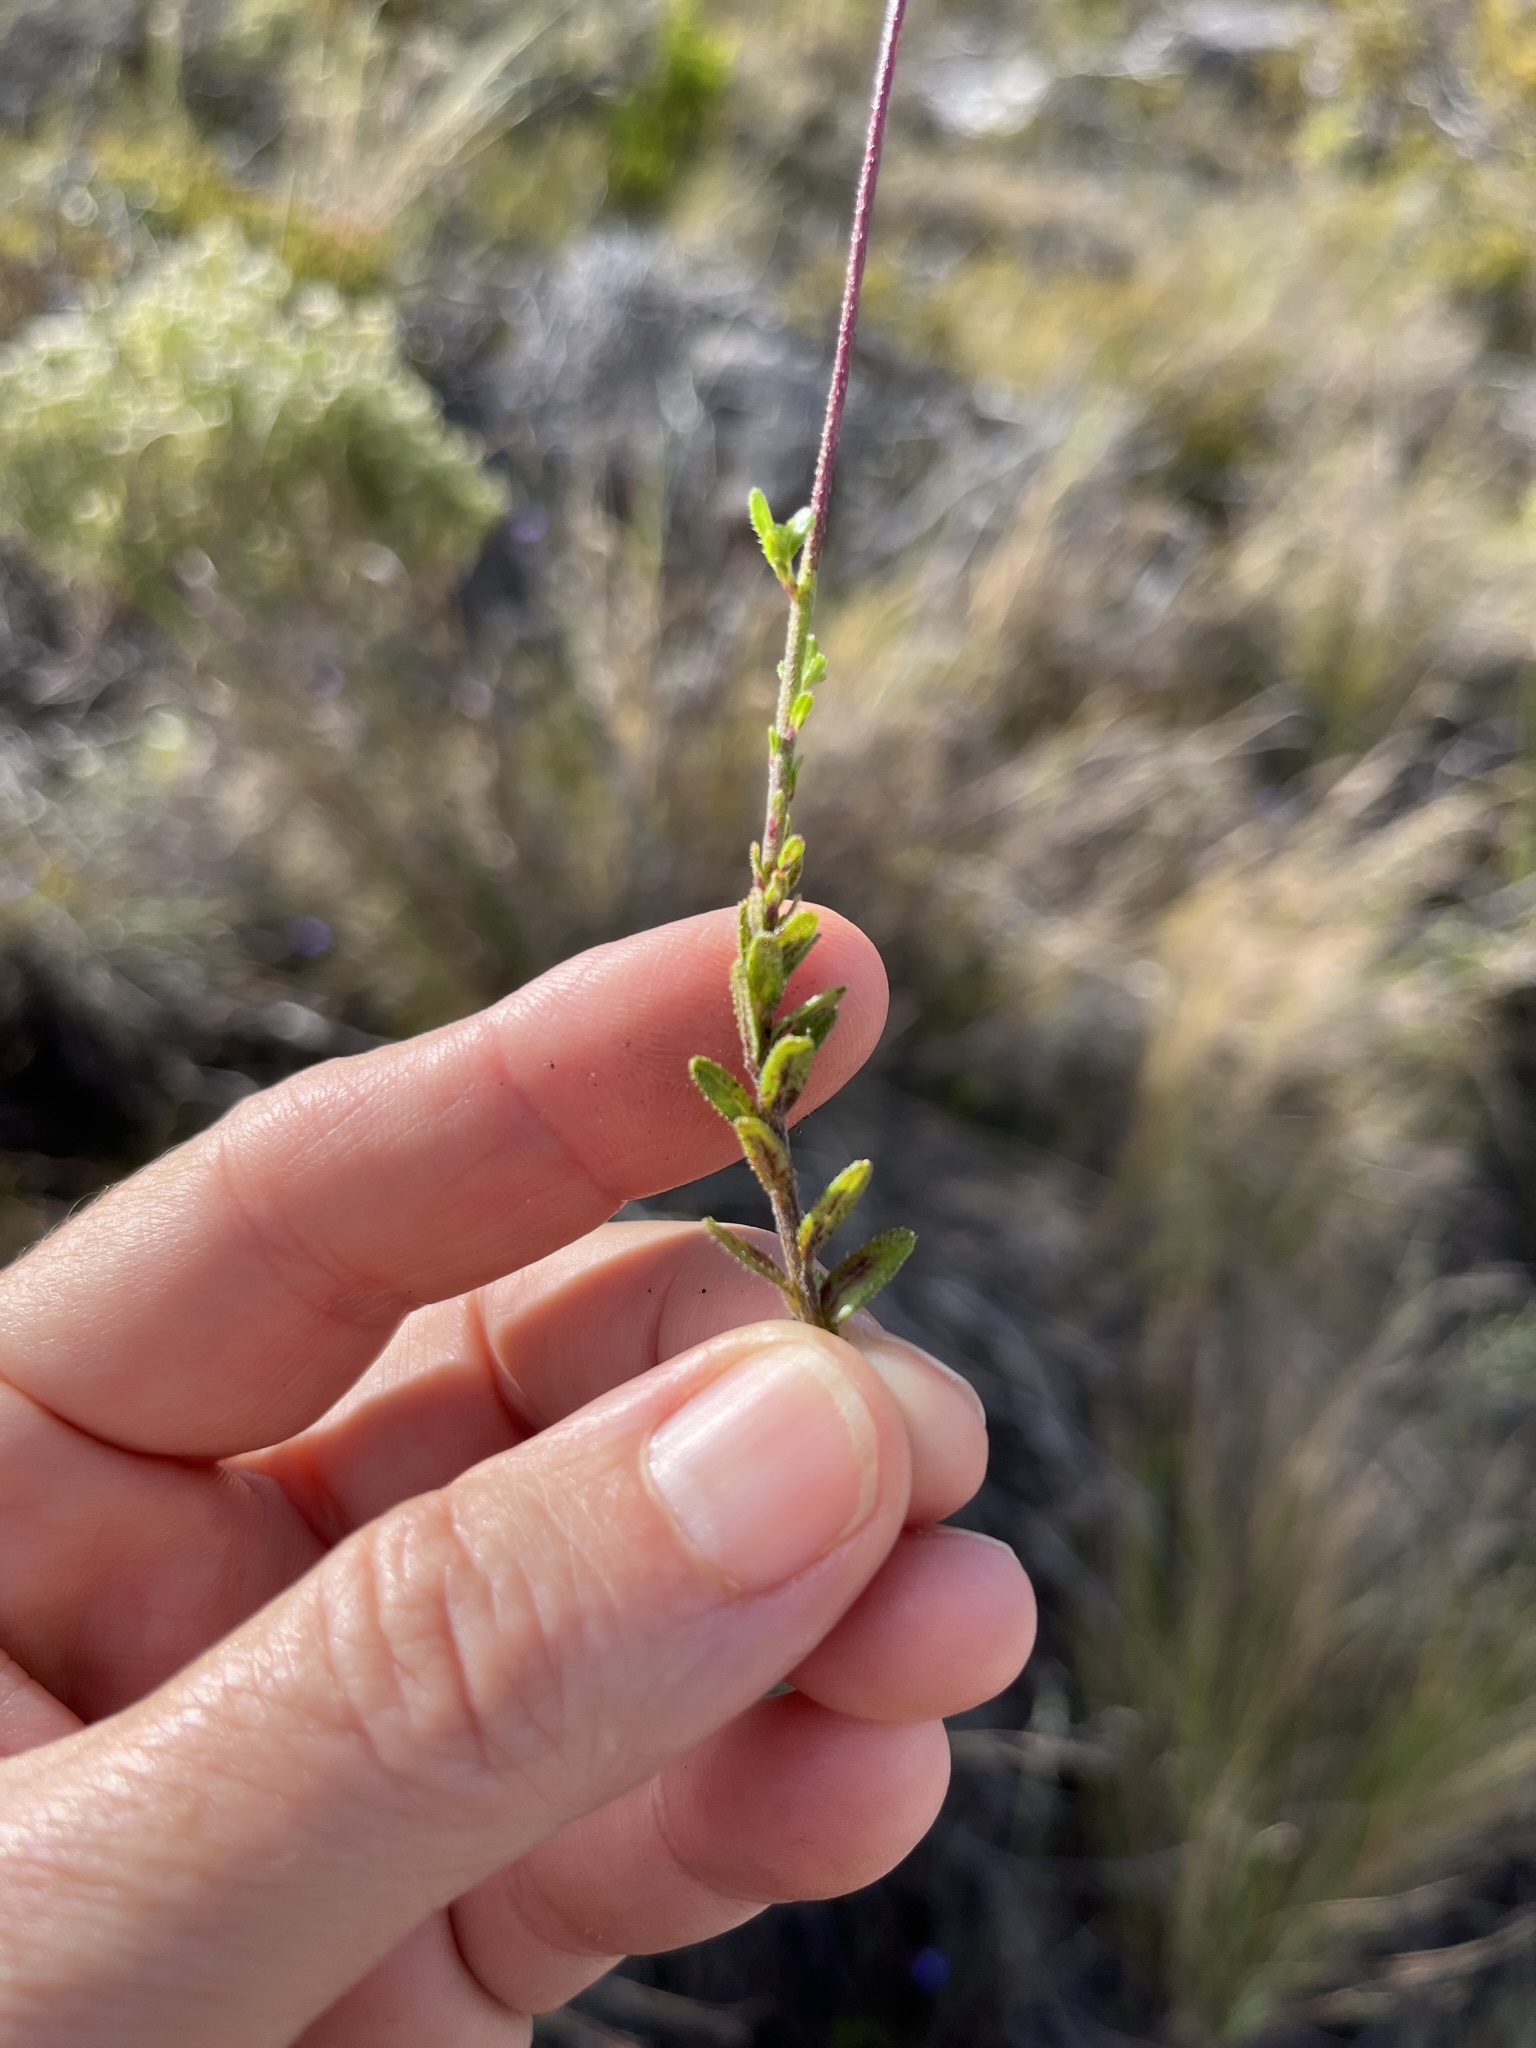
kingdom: Plantae
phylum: Tracheophyta
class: Magnoliopsida
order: Asterales
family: Campanulaceae
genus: Lobelia
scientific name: Lobelia neglecta
